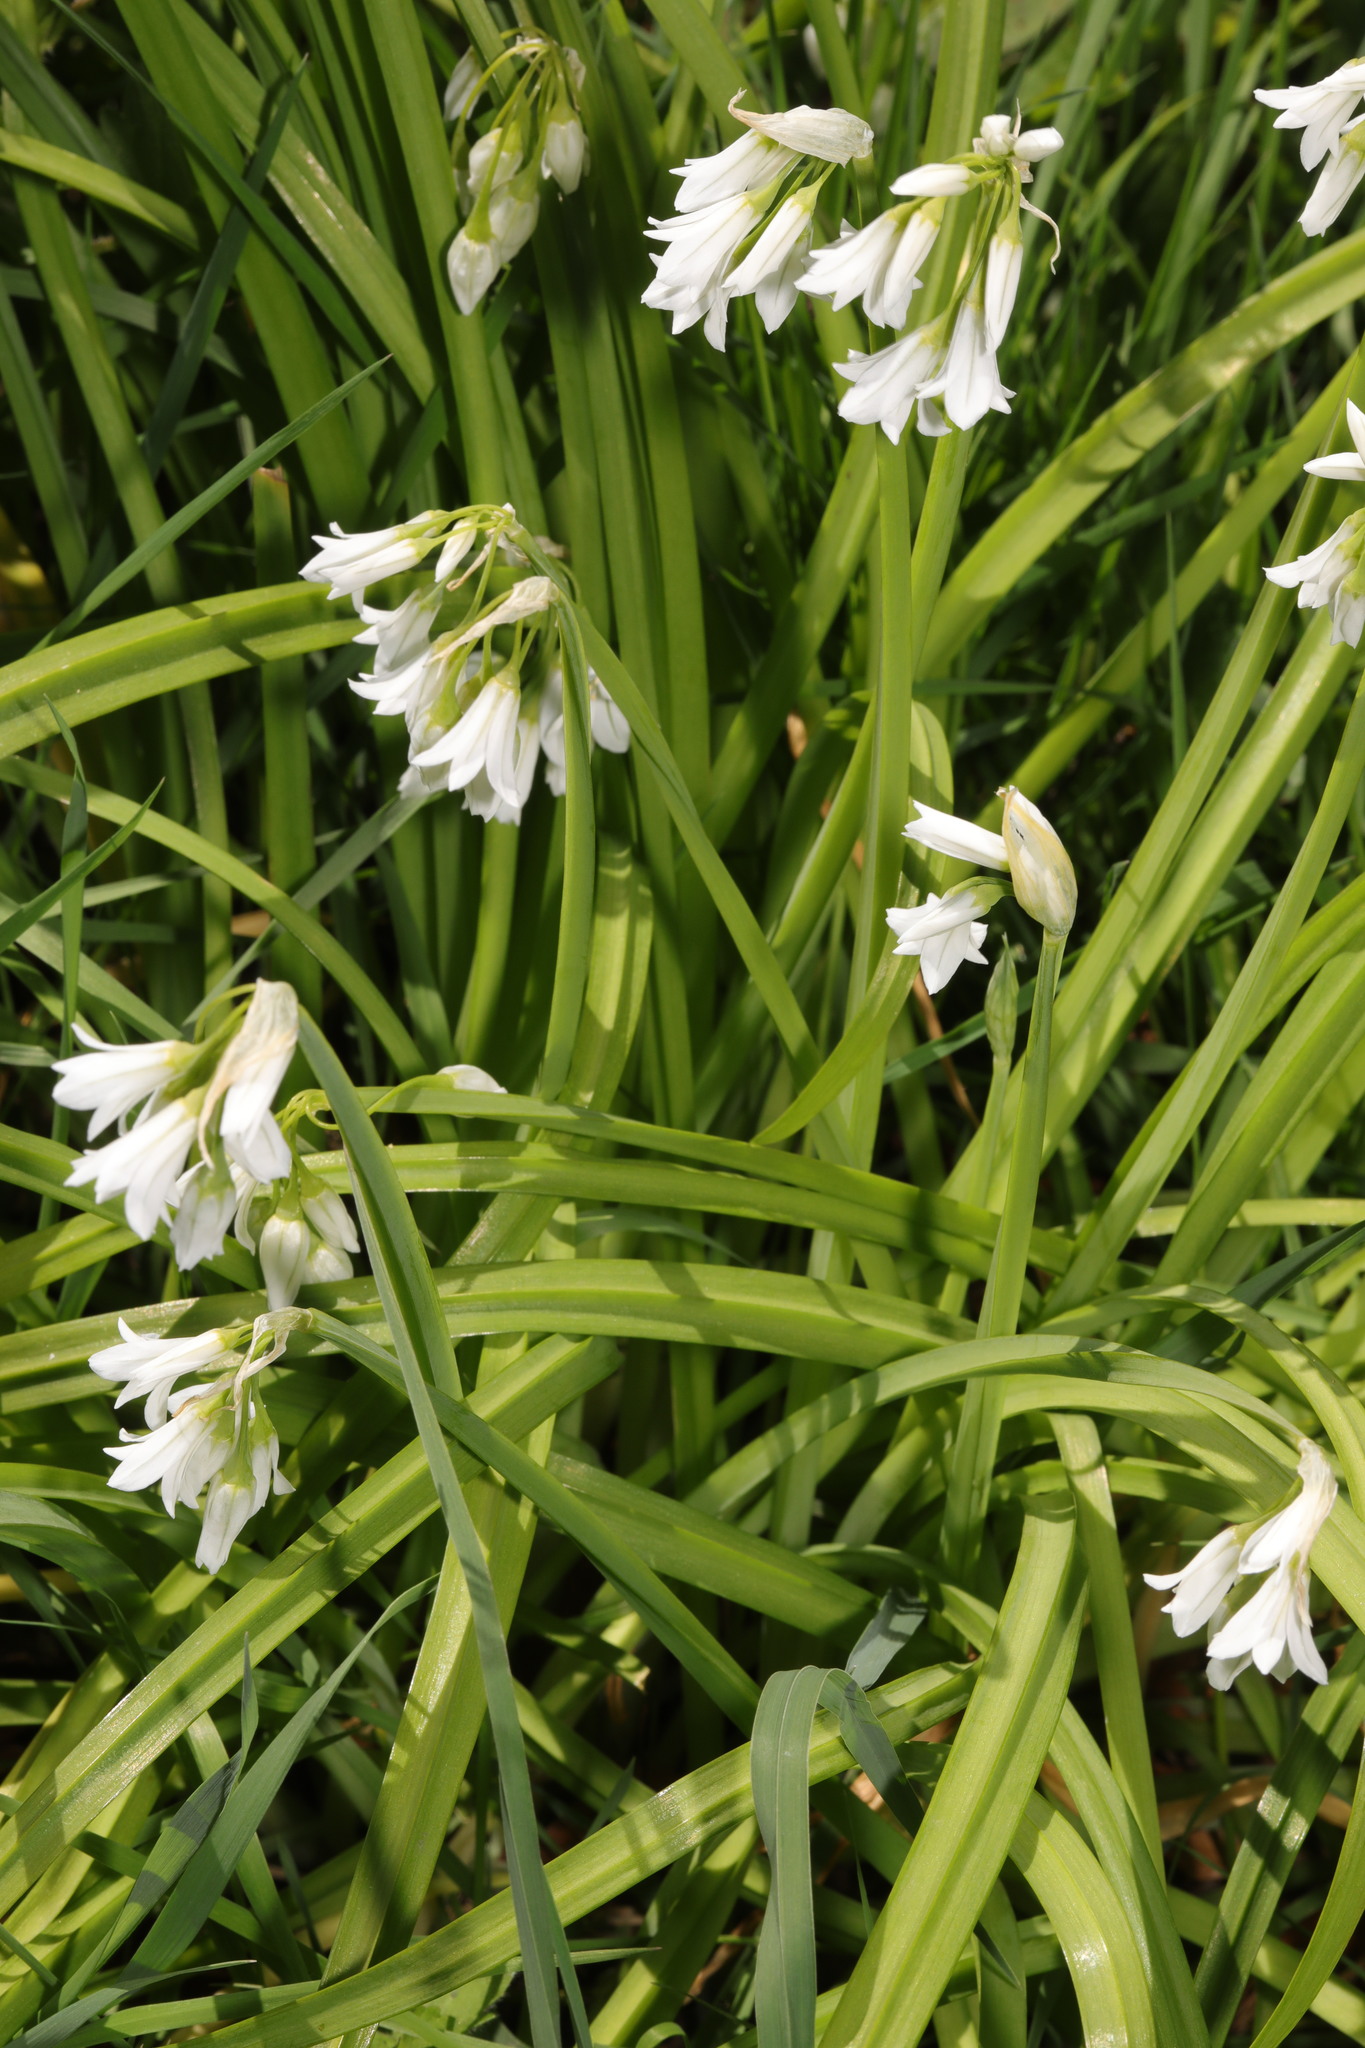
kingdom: Plantae
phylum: Tracheophyta
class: Liliopsida
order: Asparagales
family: Amaryllidaceae
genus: Allium
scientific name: Allium triquetrum
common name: Three-cornered garlic
